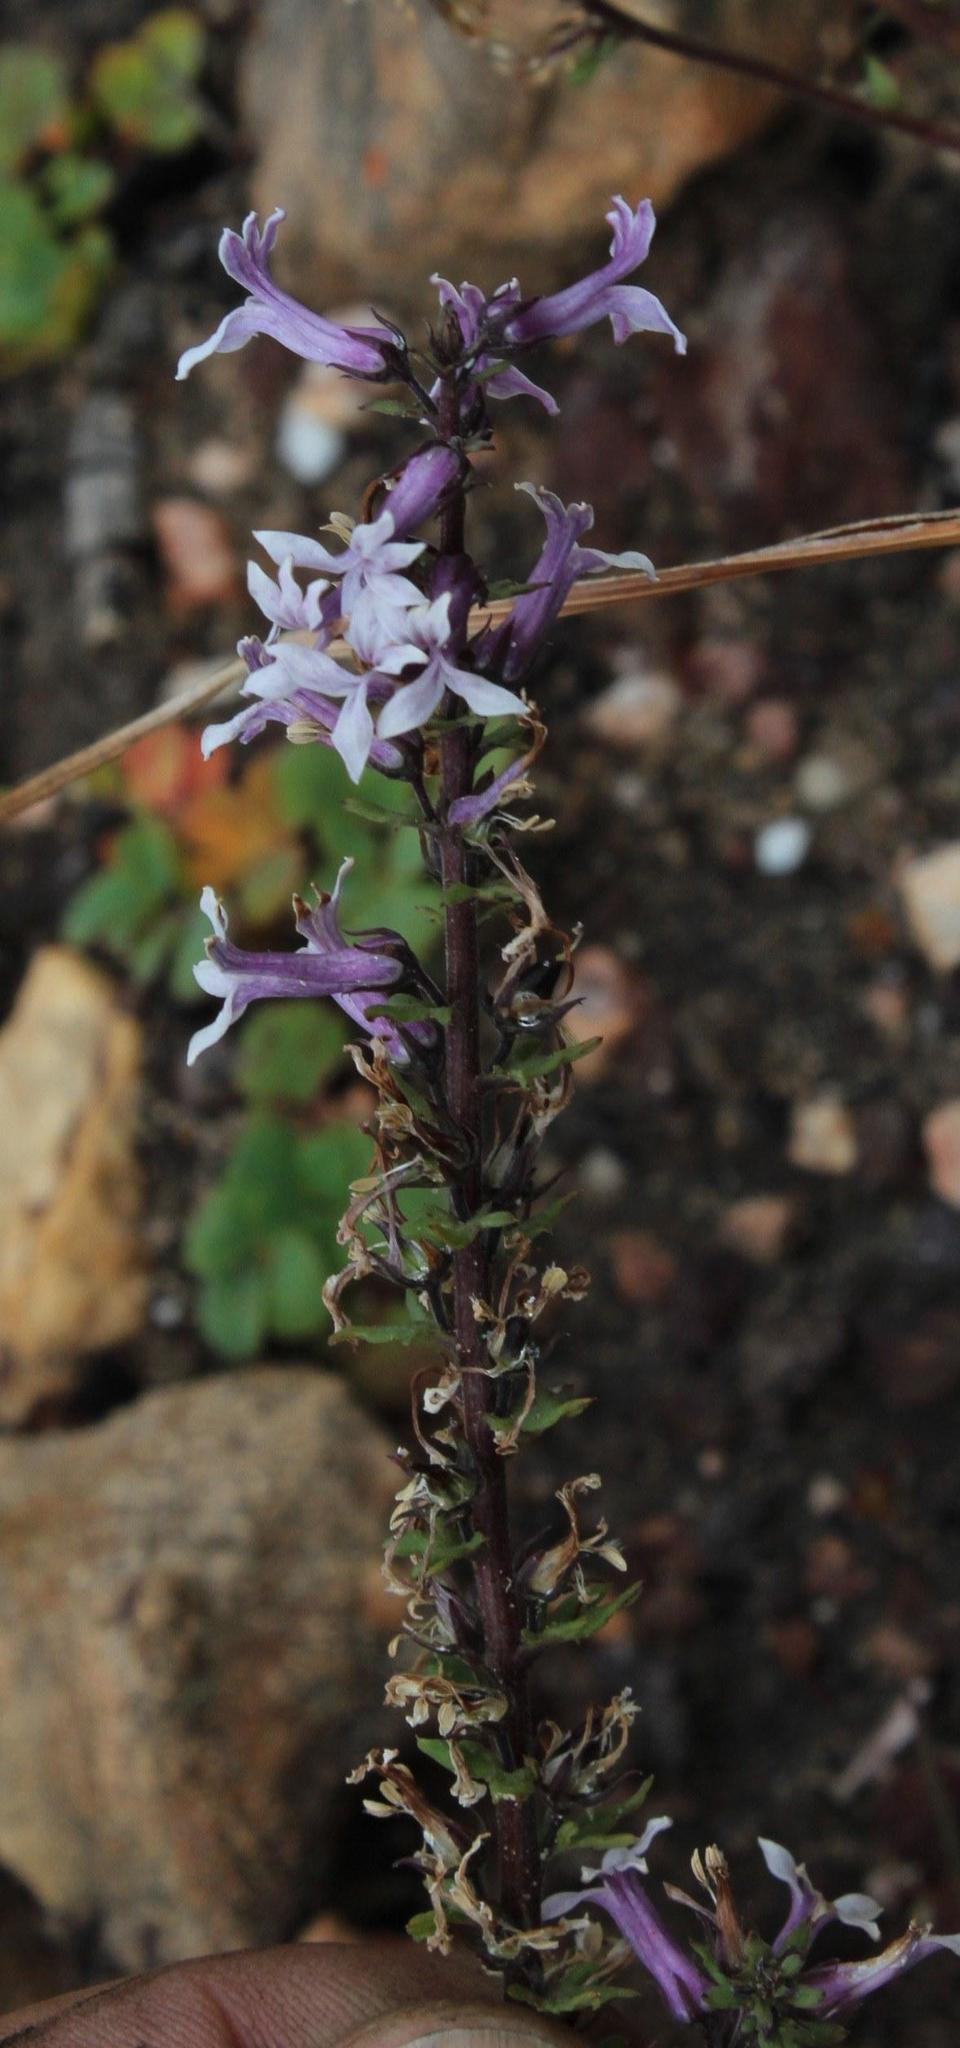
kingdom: Plantae
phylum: Tracheophyta
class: Magnoliopsida
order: Asterales
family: Campanulaceae
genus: Cyphia
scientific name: Cyphia bulbosa
